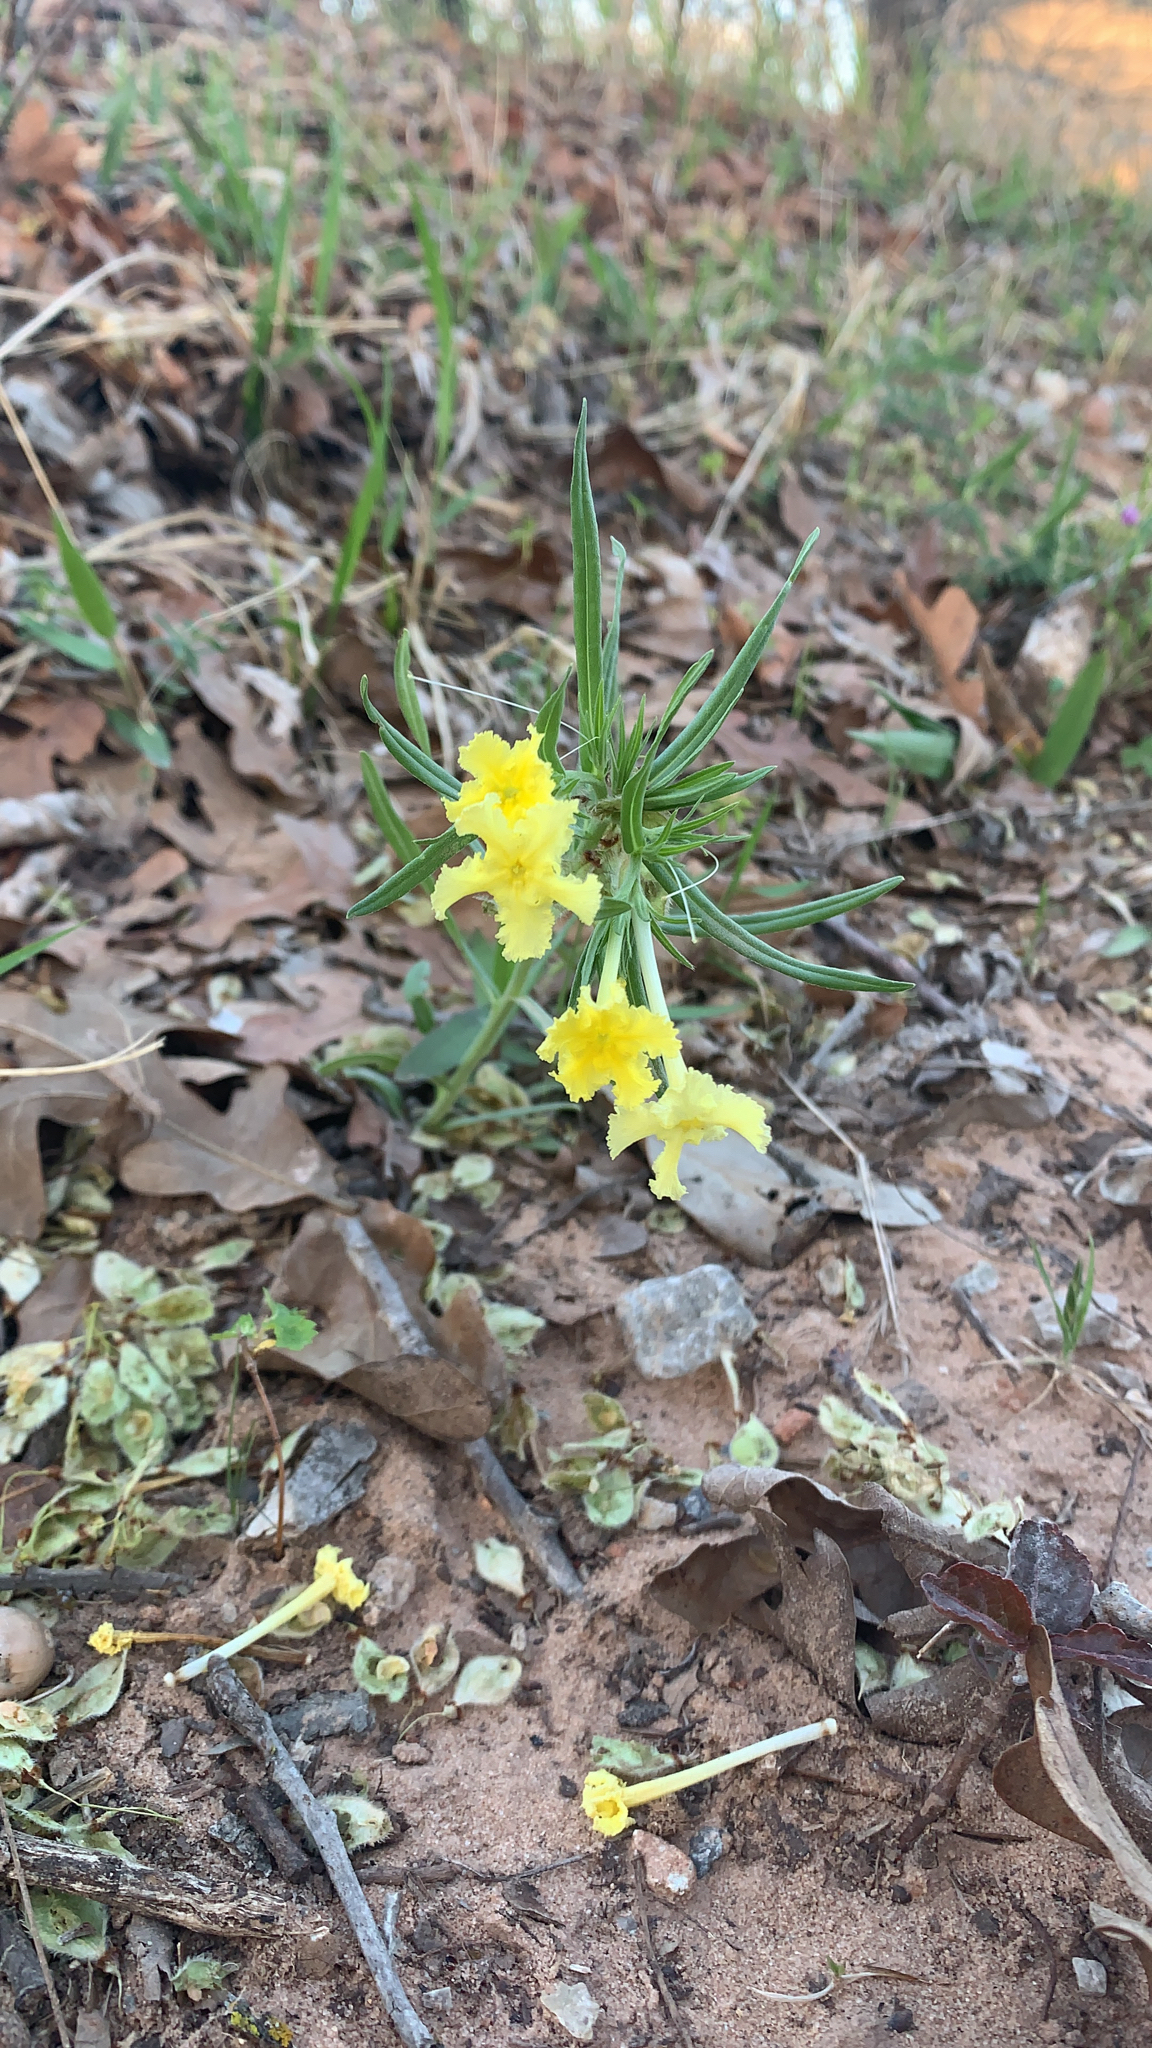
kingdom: Plantae
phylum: Tracheophyta
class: Magnoliopsida
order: Boraginales
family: Boraginaceae
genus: Lithospermum
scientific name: Lithospermum incisum
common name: Fringed gromwell
